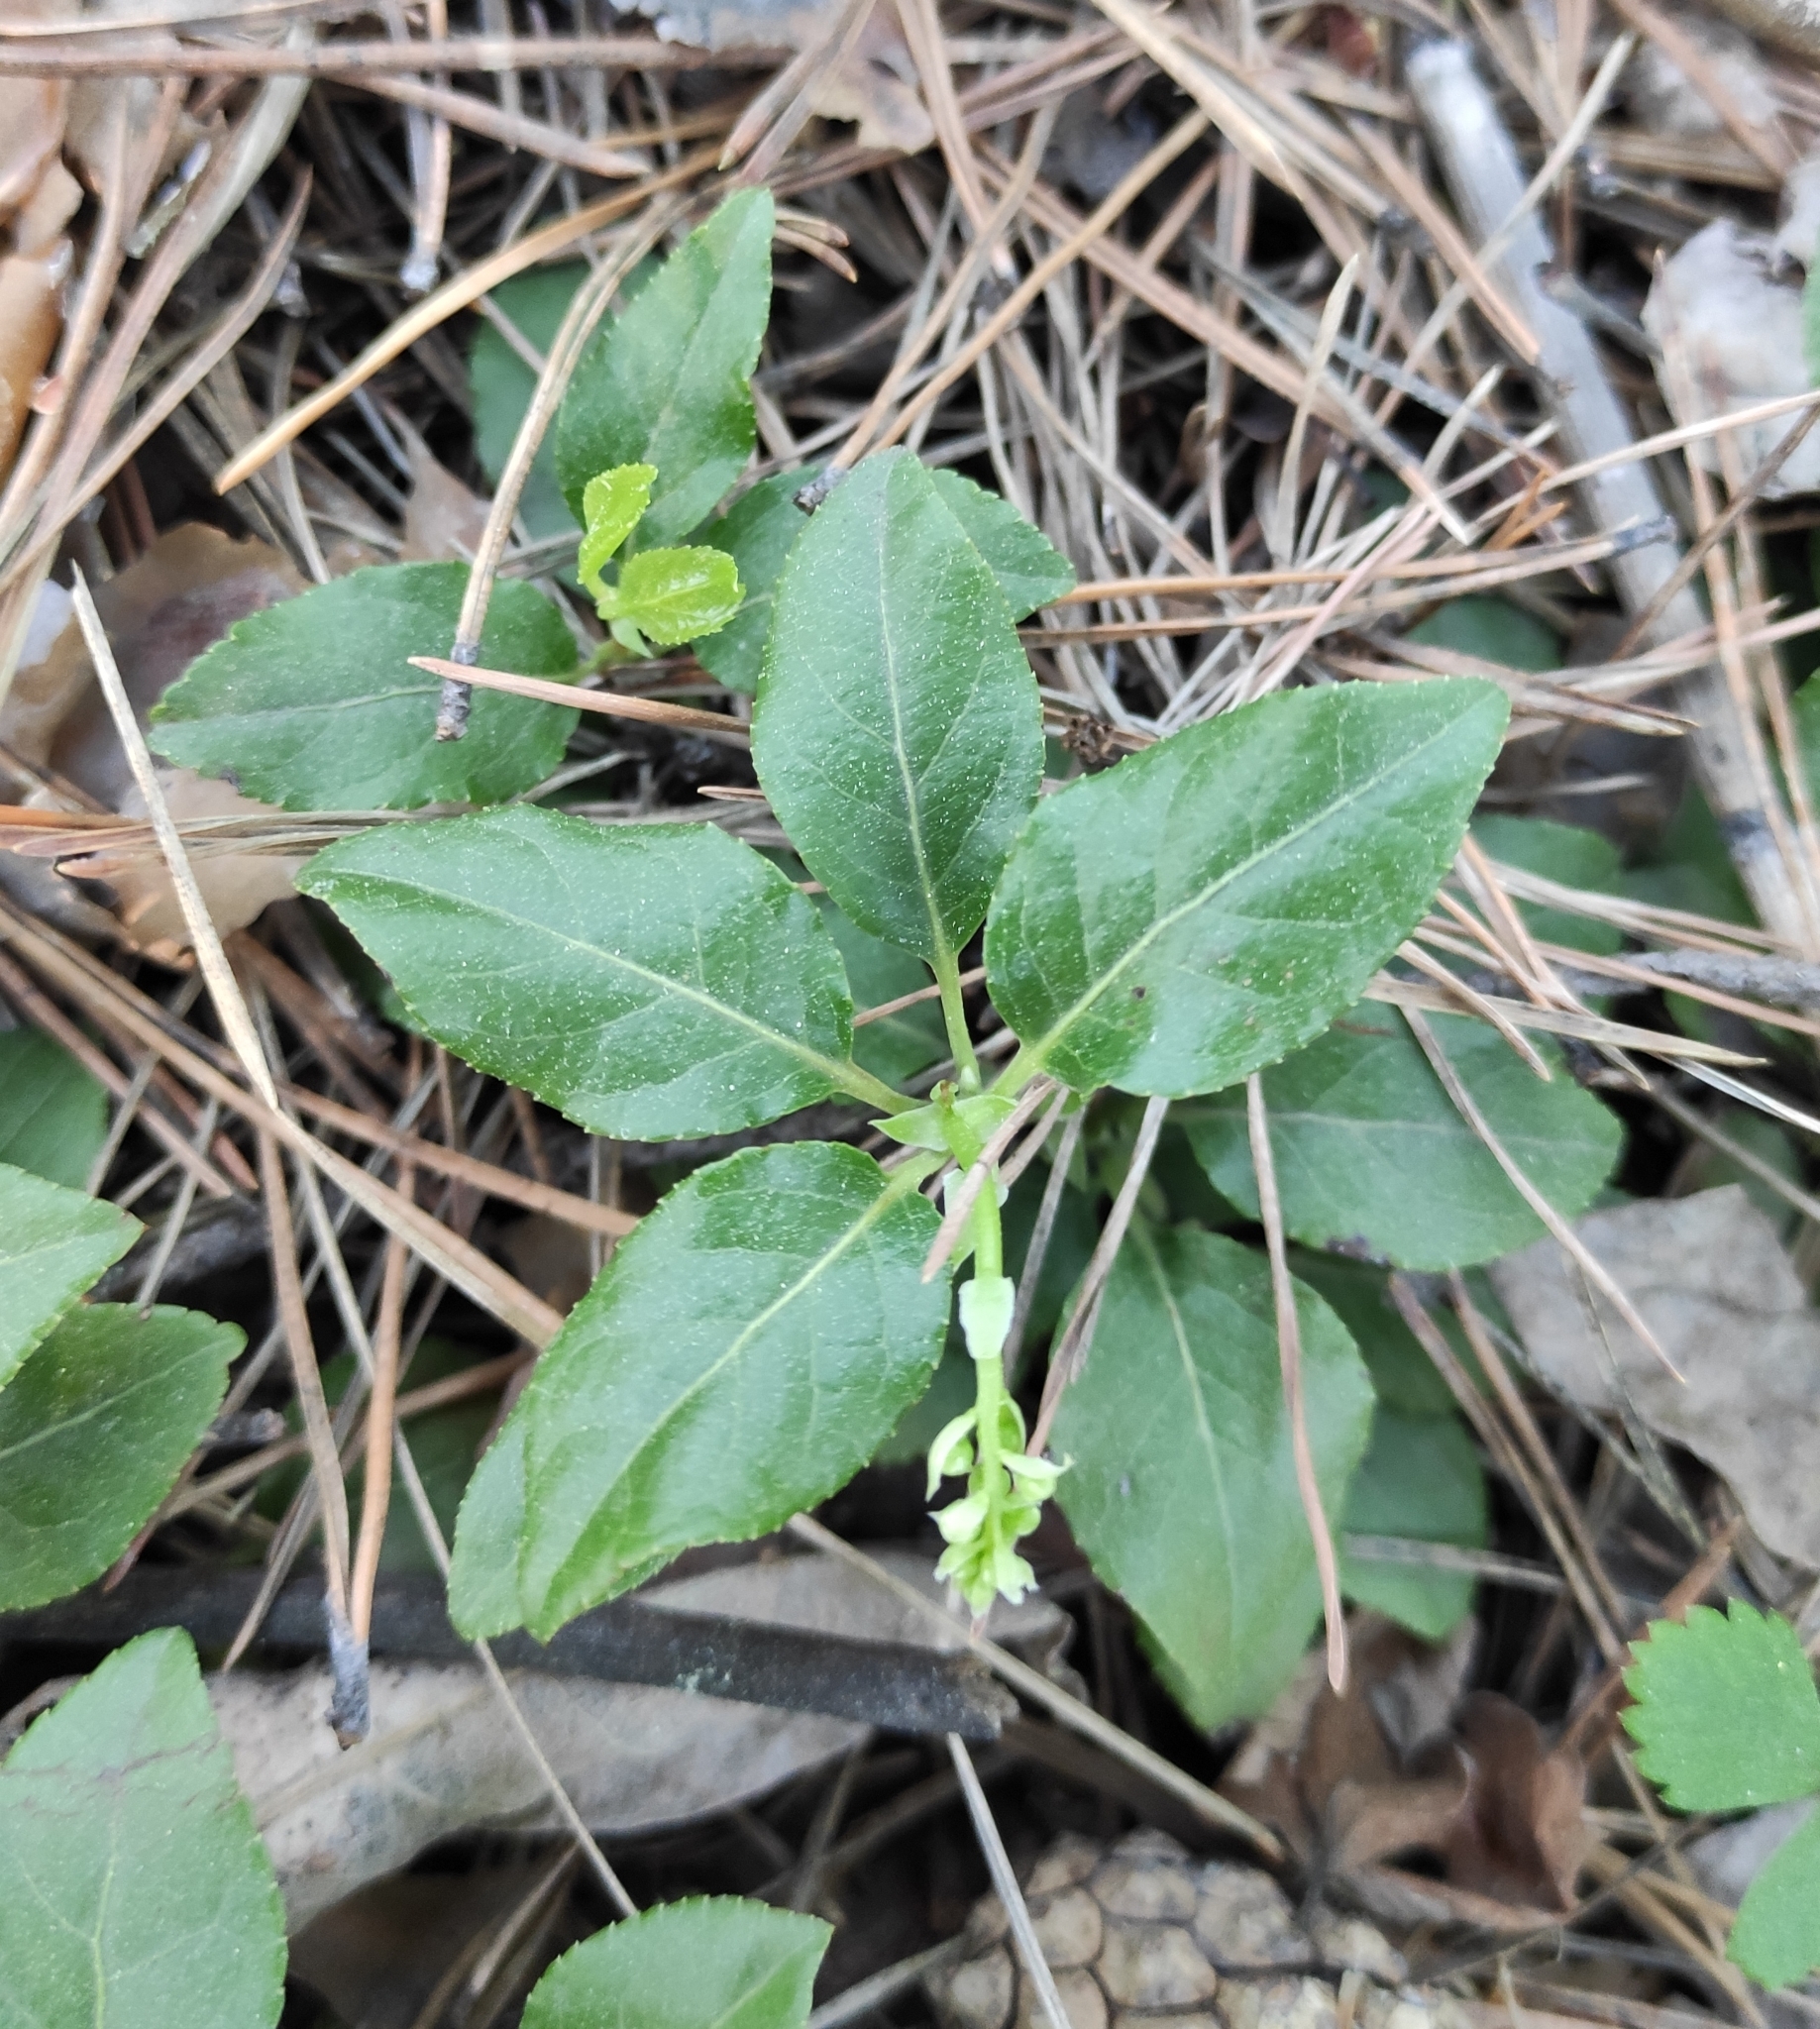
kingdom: Plantae
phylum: Tracheophyta
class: Magnoliopsida
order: Ericales
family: Ericaceae
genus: Orthilia
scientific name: Orthilia secunda
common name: One-sided orthilia
